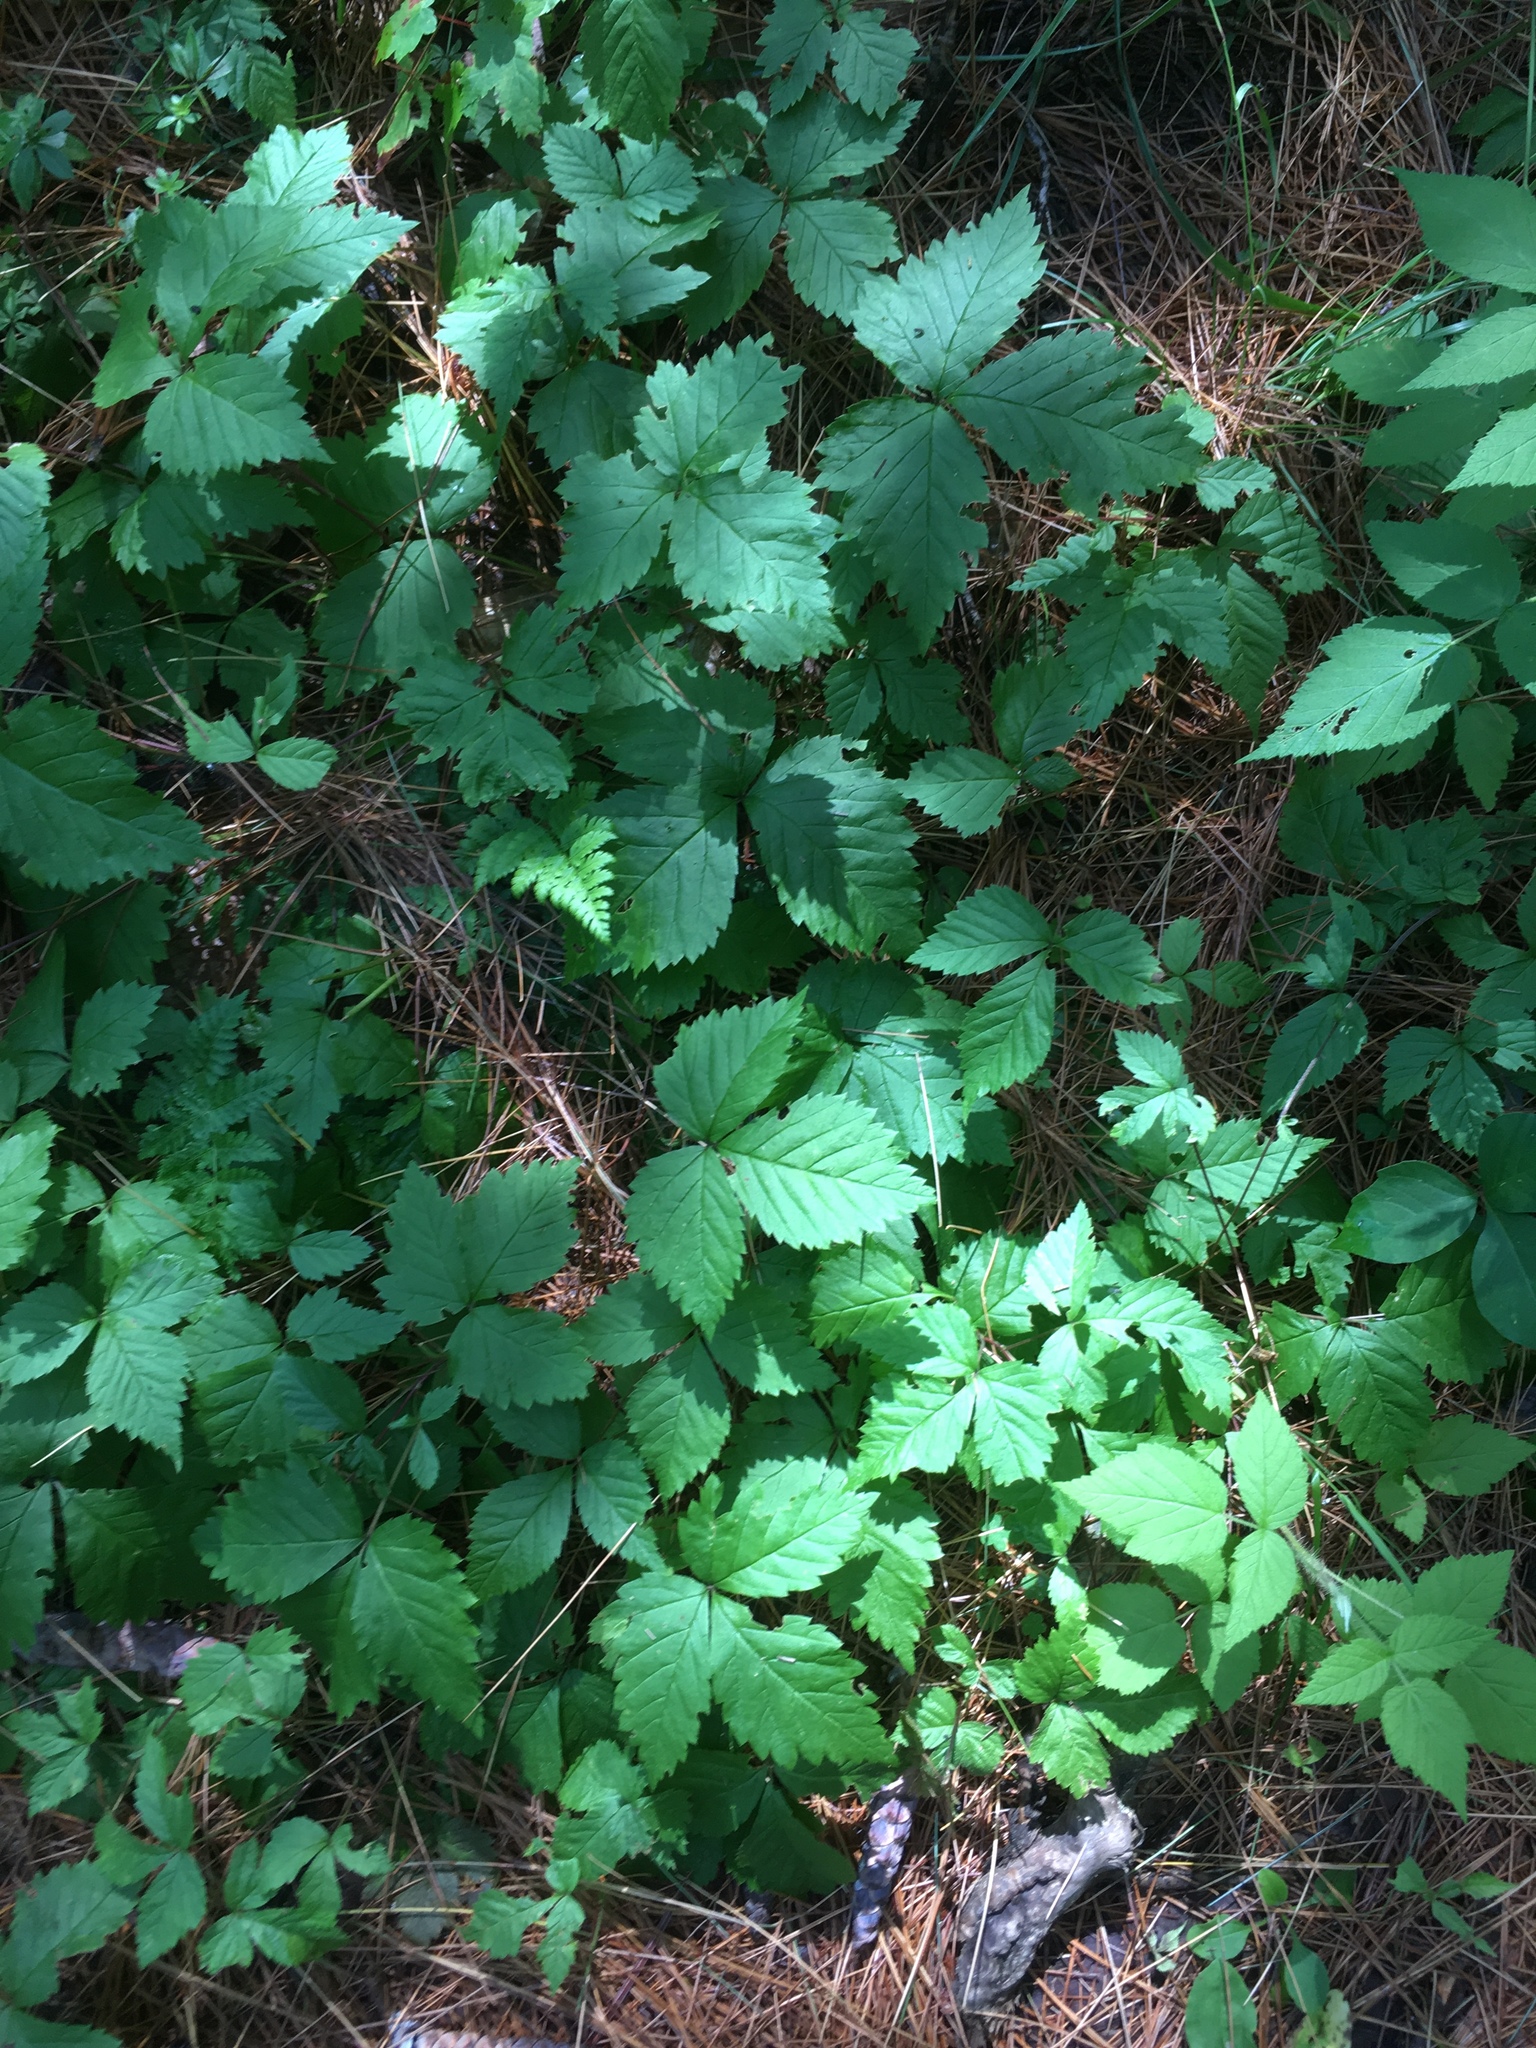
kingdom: Plantae
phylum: Tracheophyta
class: Magnoliopsida
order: Rosales
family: Rosaceae
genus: Rubus
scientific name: Rubus pubescens
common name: Dwarf raspberry
